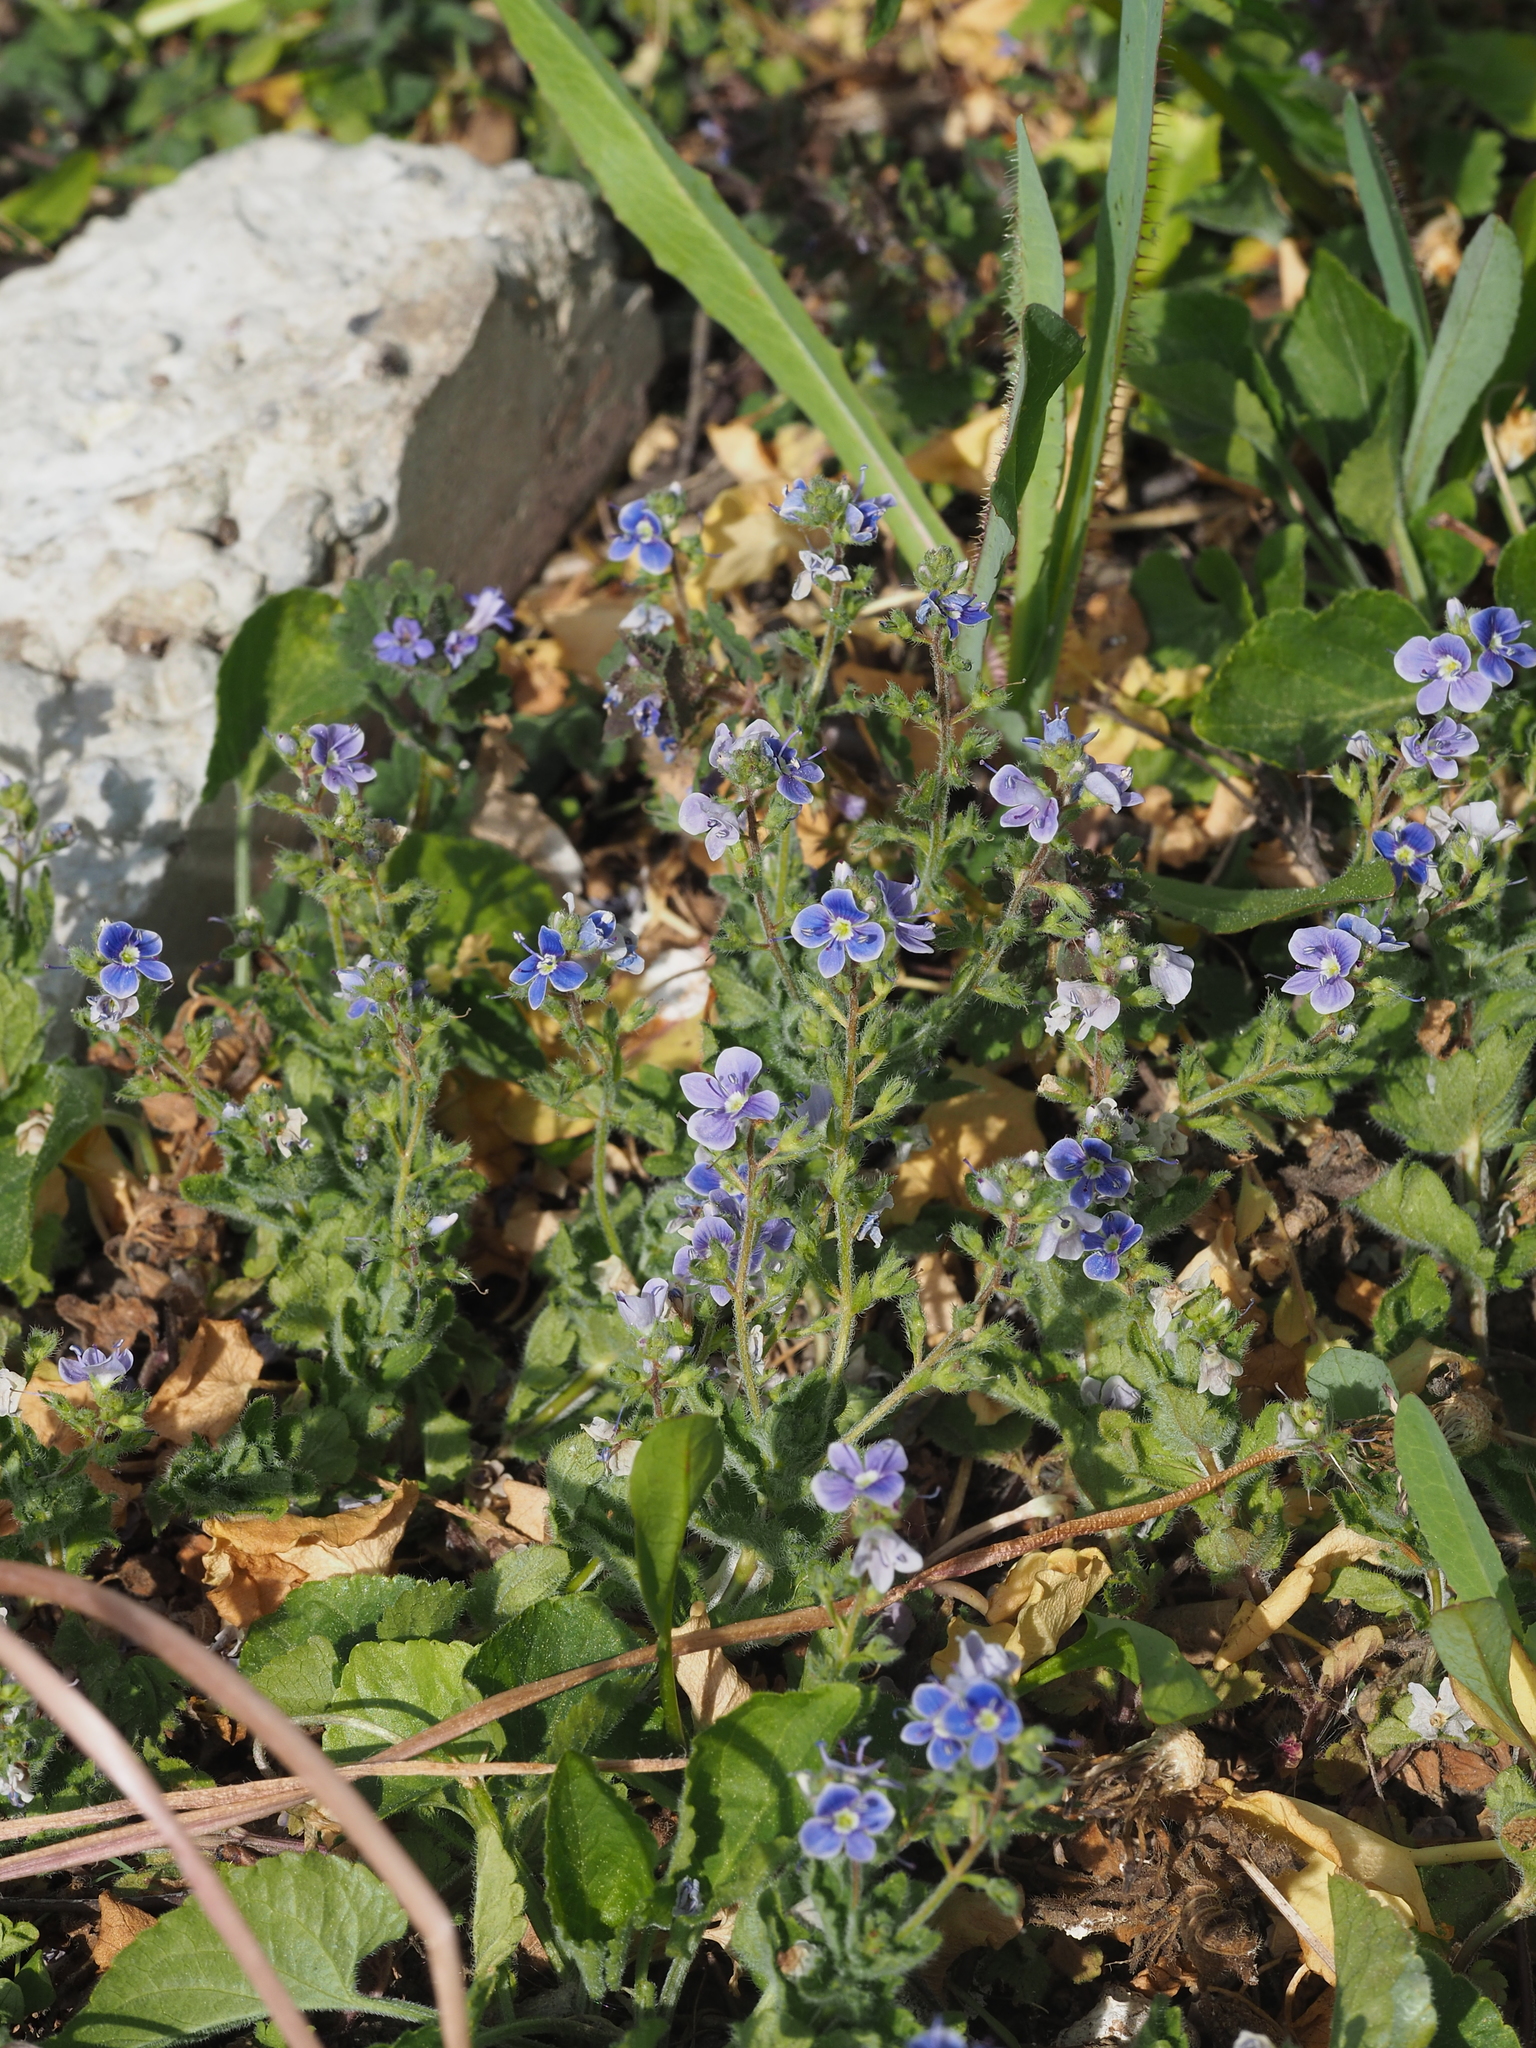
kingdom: Plantae
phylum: Tracheophyta
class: Magnoliopsida
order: Lamiales
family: Plantaginaceae
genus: Veronica
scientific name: Veronica chamaedrys
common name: Germander speedwell
